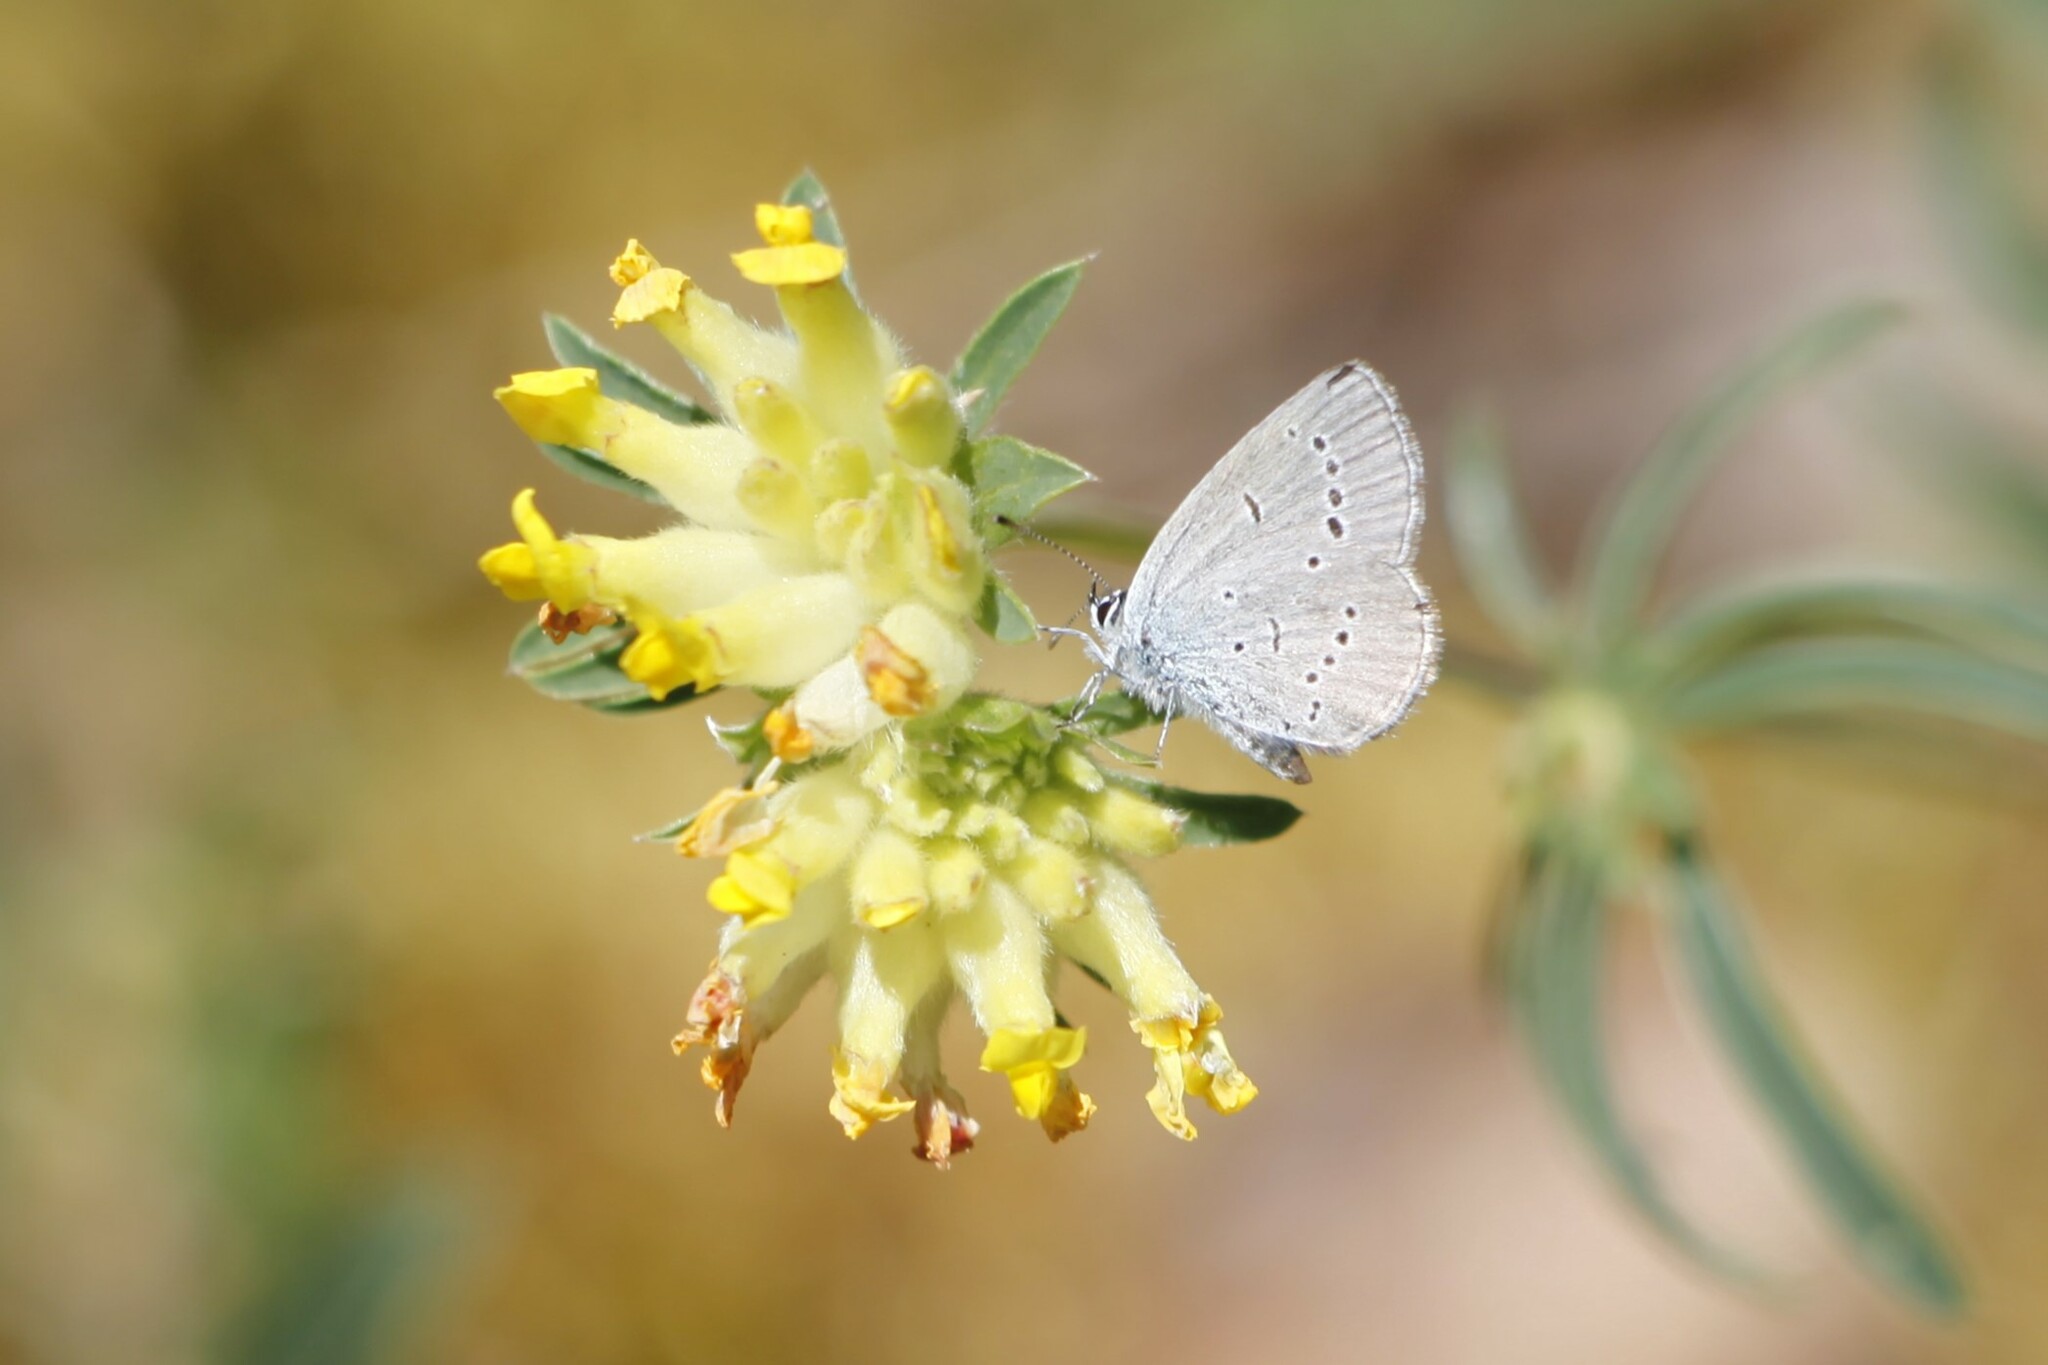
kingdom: Animalia
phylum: Arthropoda
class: Insecta
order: Lepidoptera
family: Lycaenidae
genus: Cupido
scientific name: Cupido minimus
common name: Small blue
